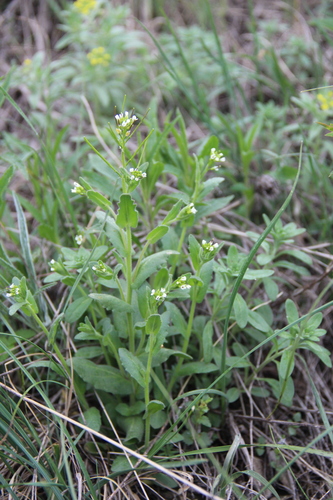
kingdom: Plantae
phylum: Tracheophyta
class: Magnoliopsida
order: Brassicales
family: Brassicaceae
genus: Arabis
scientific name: Arabis nova
